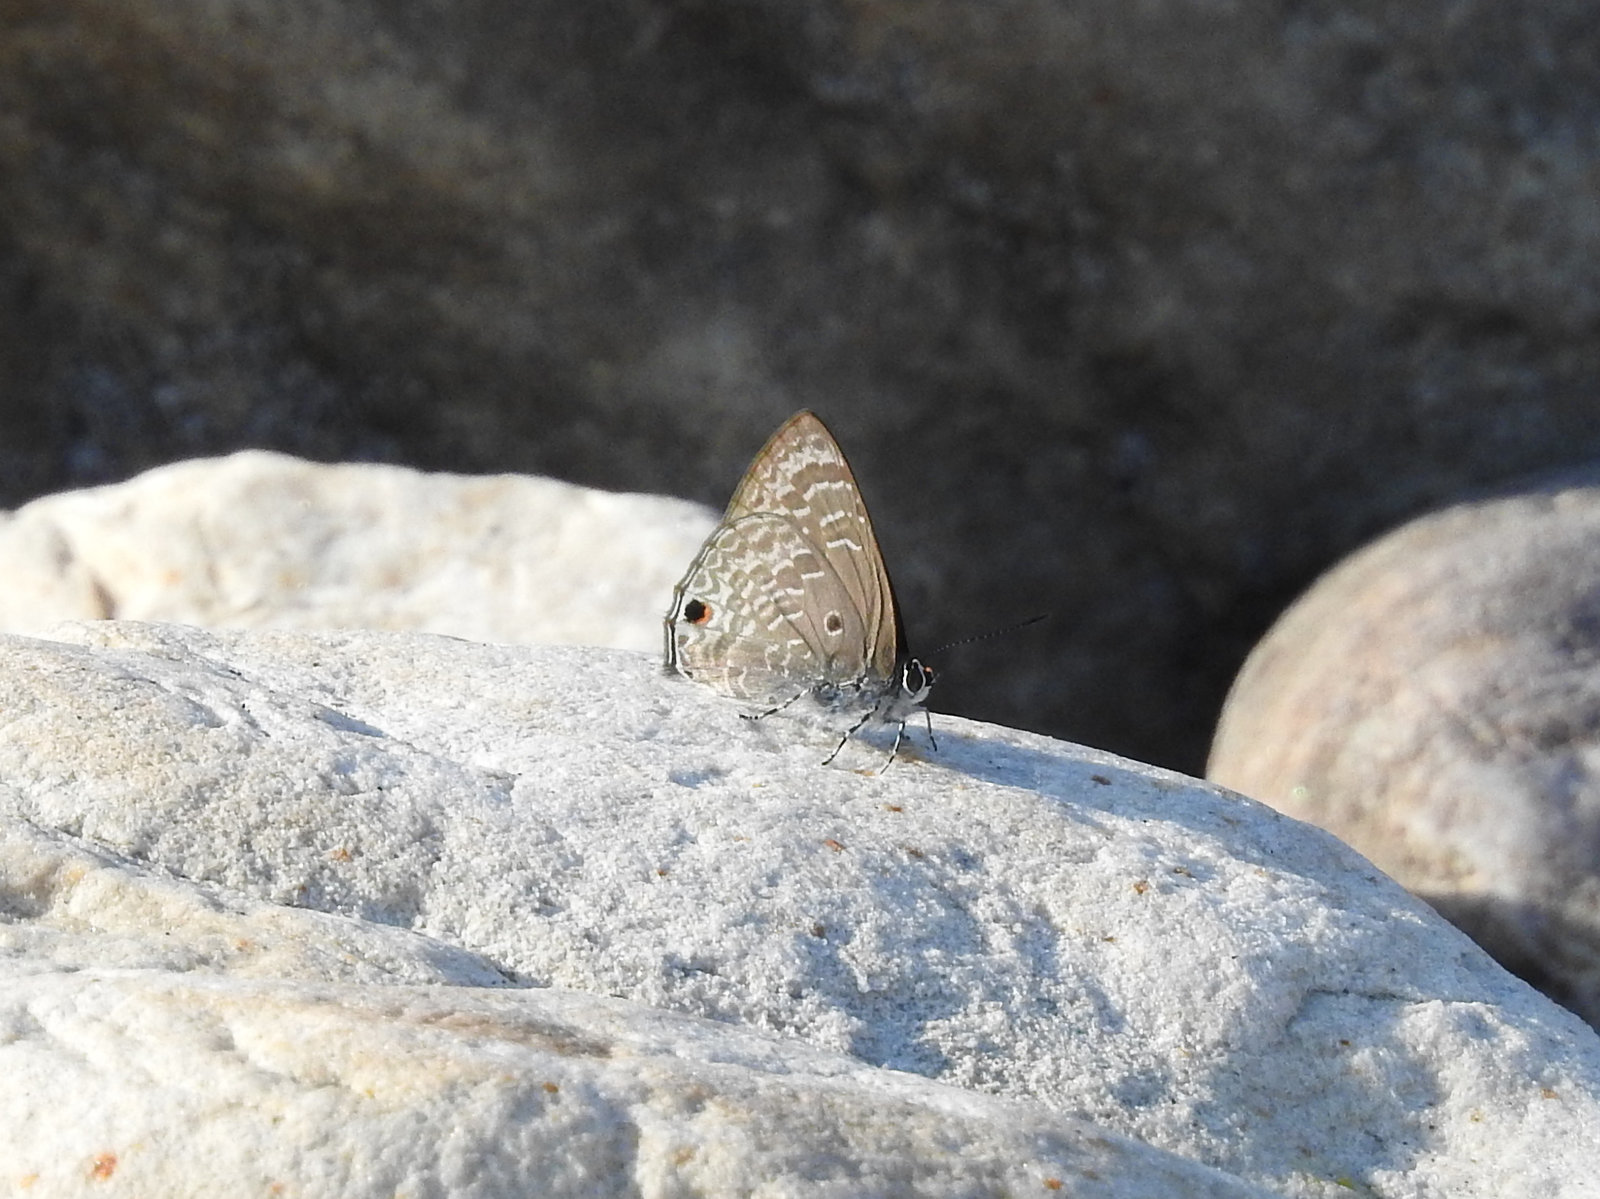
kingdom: Animalia
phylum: Arthropoda
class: Insecta
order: Lepidoptera
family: Lycaenidae
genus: Anthene
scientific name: Anthene lycaenina
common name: Pointed ciliate blue
